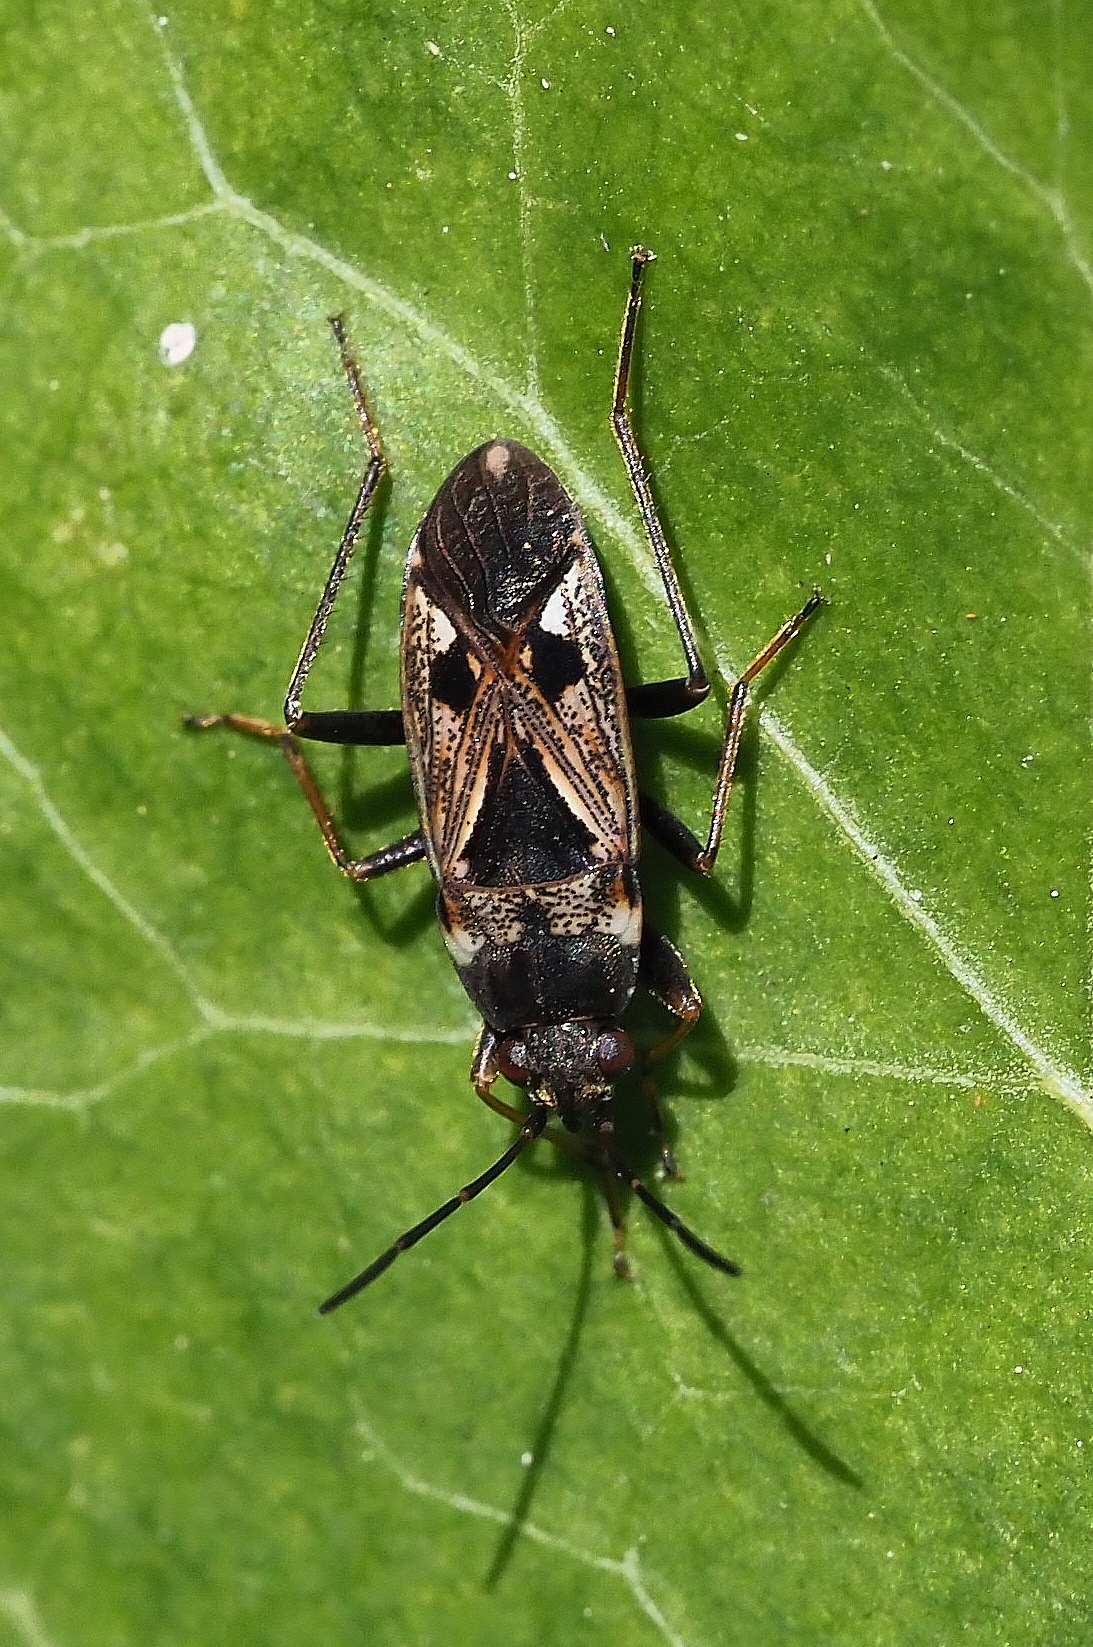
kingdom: Animalia
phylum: Arthropoda
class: Insecta
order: Hemiptera
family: Rhyparochromidae
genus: Rhyparochromus
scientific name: Rhyparochromus vulgaris
